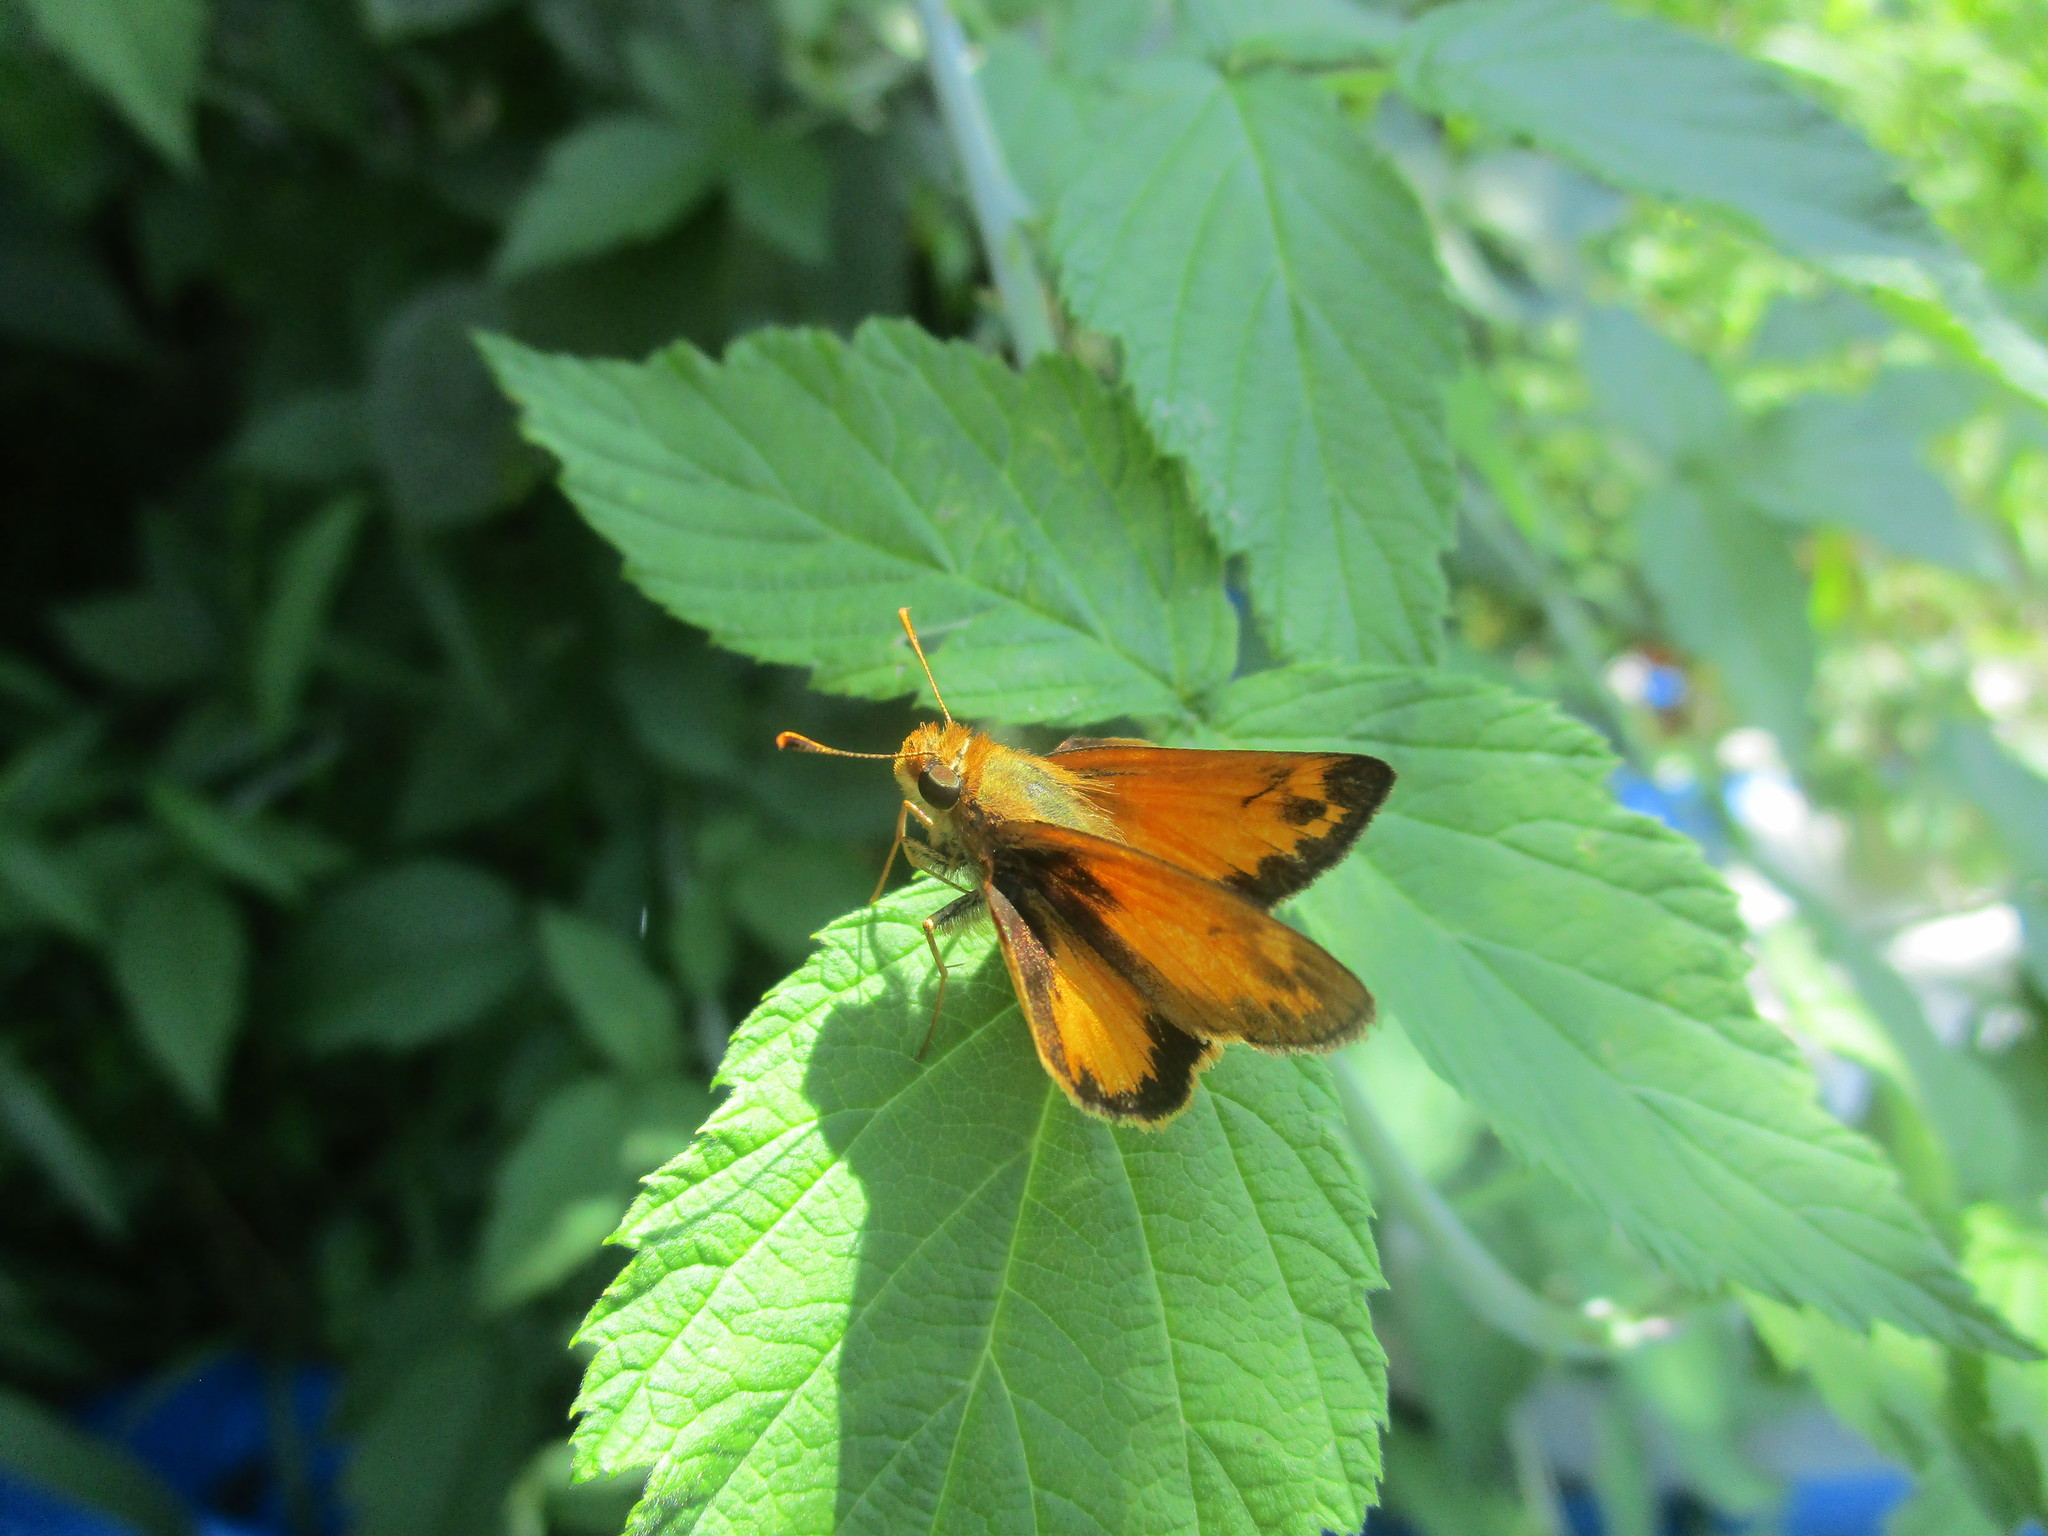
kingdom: Animalia
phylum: Arthropoda
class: Insecta
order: Lepidoptera
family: Hesperiidae
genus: Lon
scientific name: Lon zabulon
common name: Zabulon skipper
